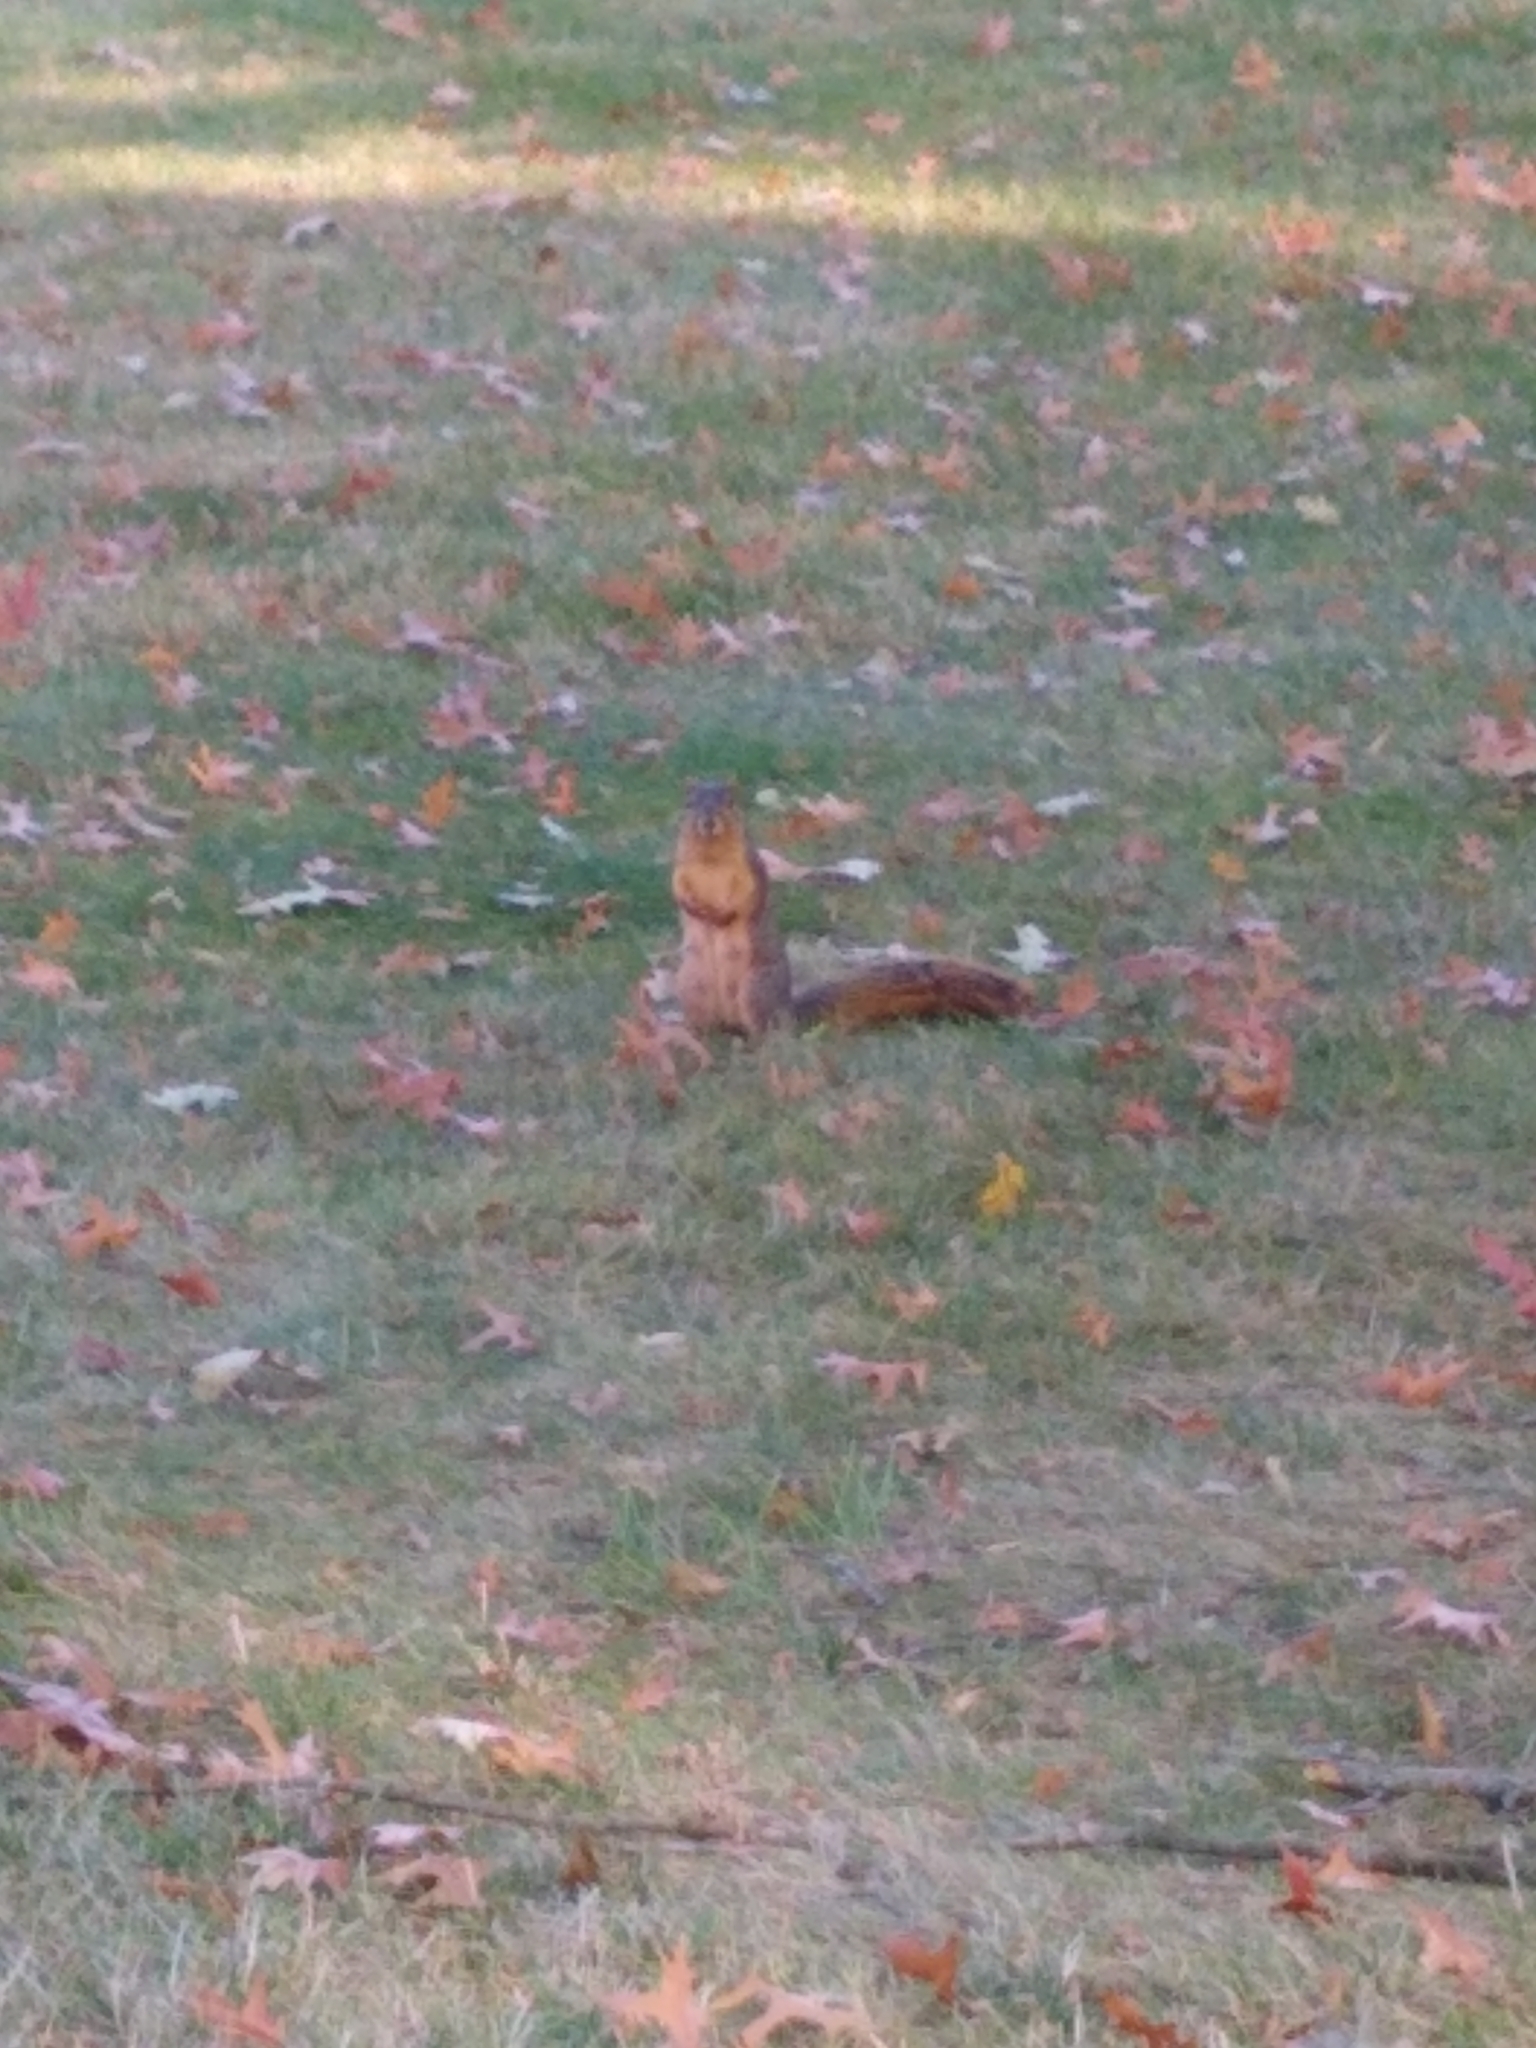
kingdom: Animalia
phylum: Chordata
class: Mammalia
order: Rodentia
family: Sciuridae
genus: Sciurus
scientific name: Sciurus niger
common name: Fox squirrel
